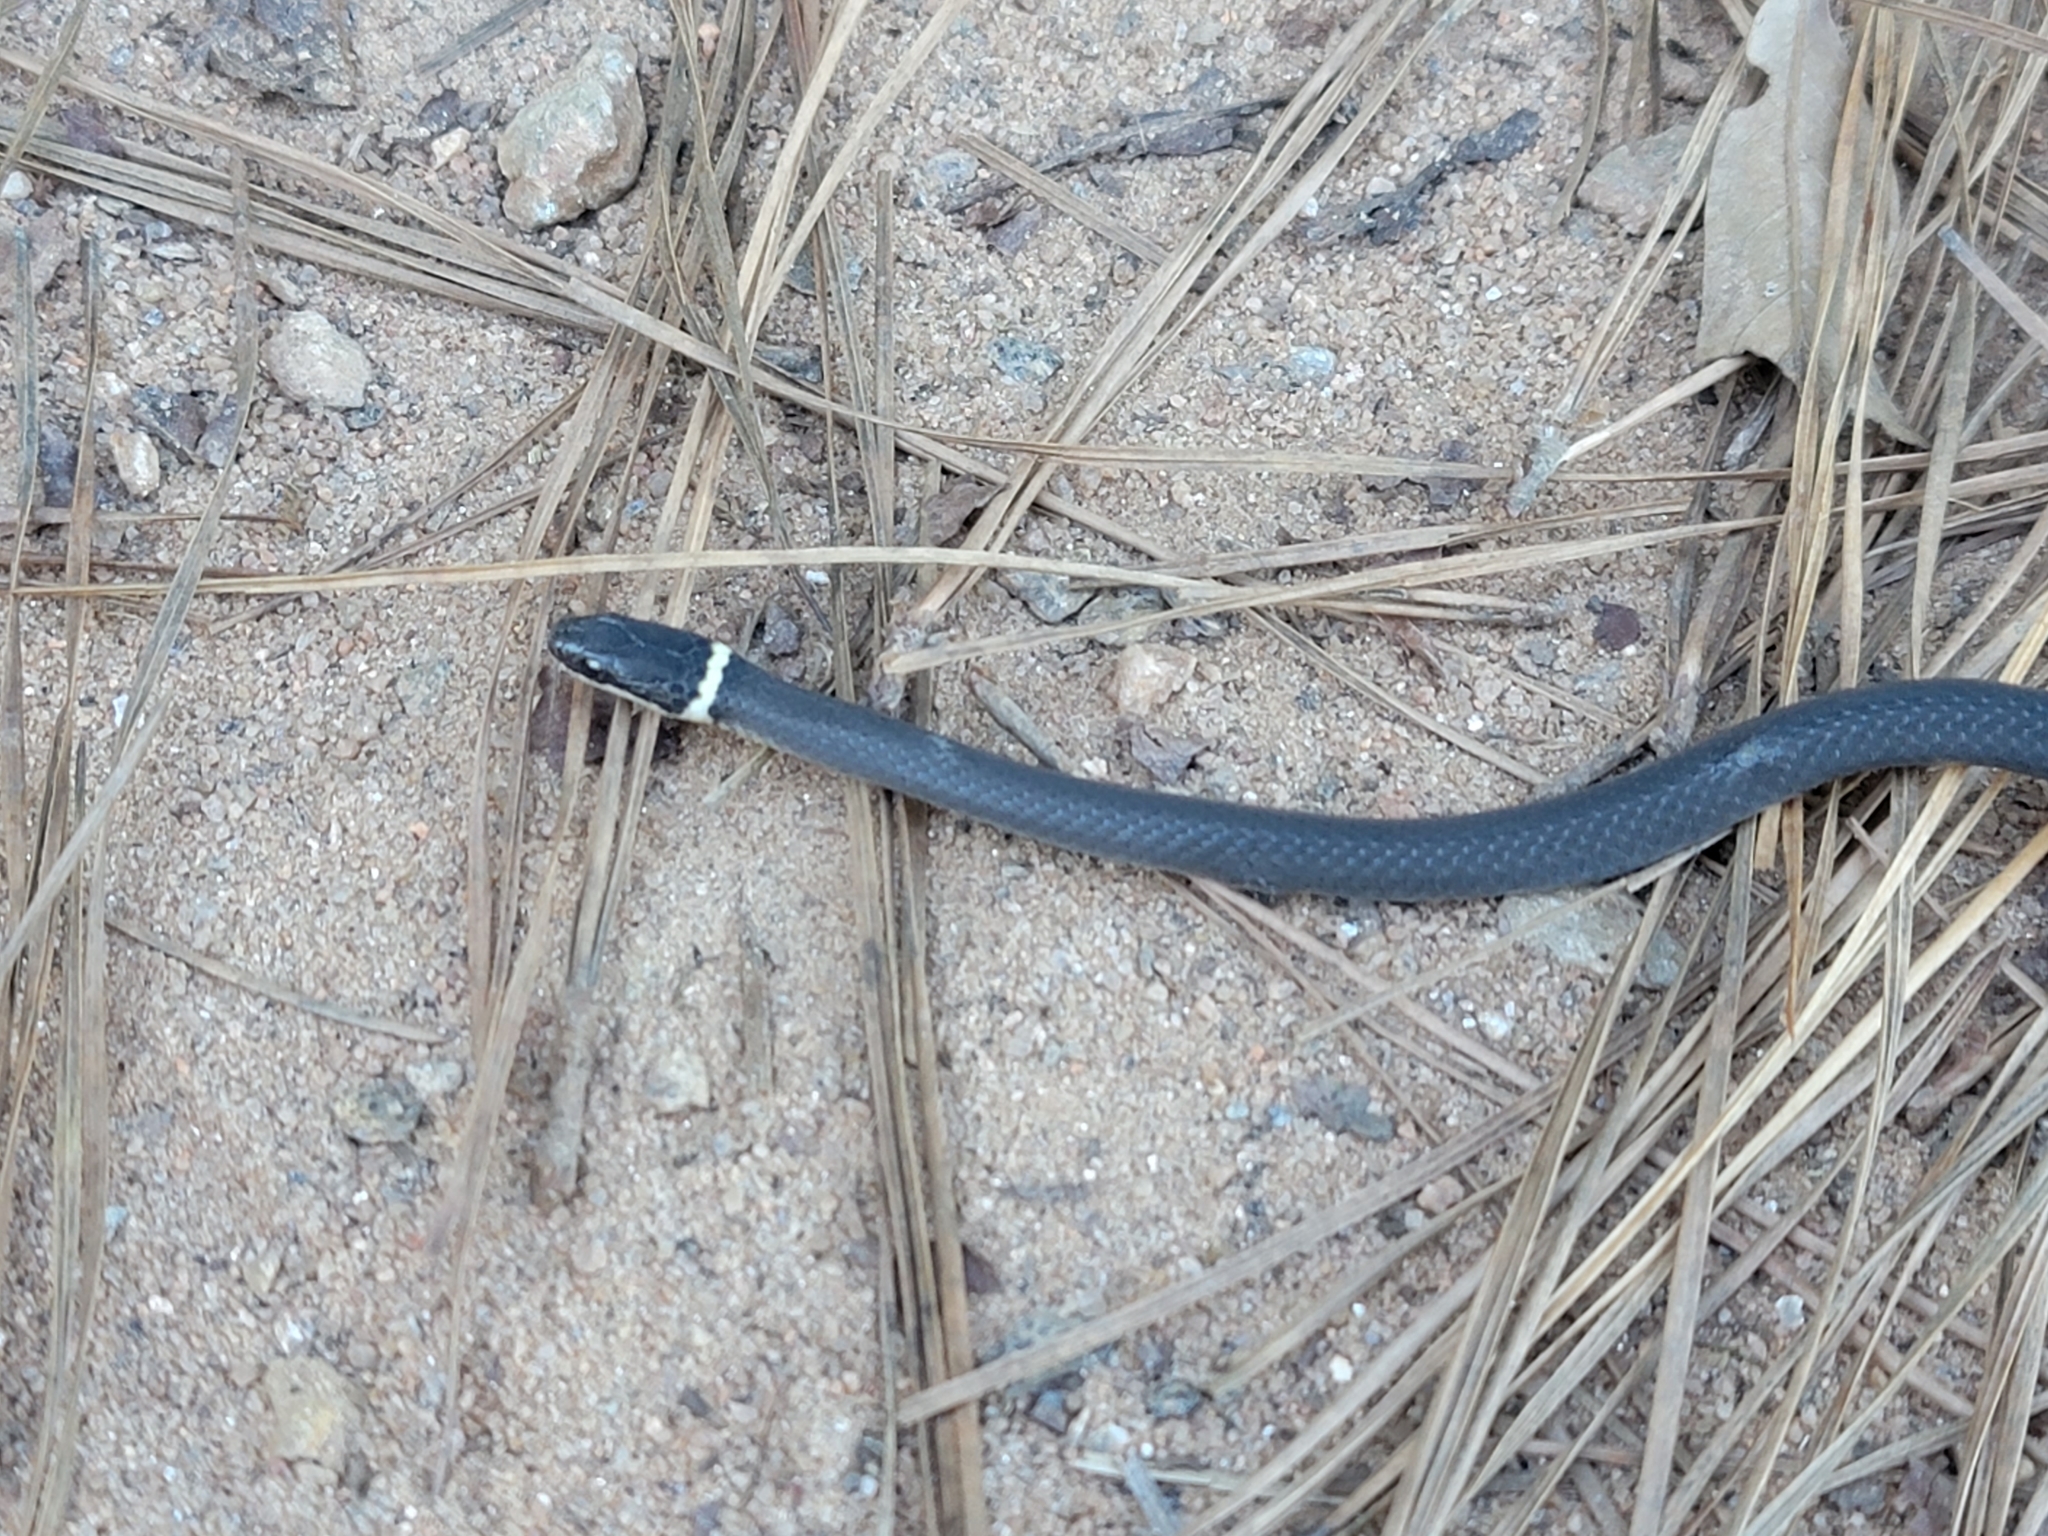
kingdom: Animalia
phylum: Chordata
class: Squamata
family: Colubridae
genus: Diadophis
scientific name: Diadophis punctatus
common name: Ringneck snake
